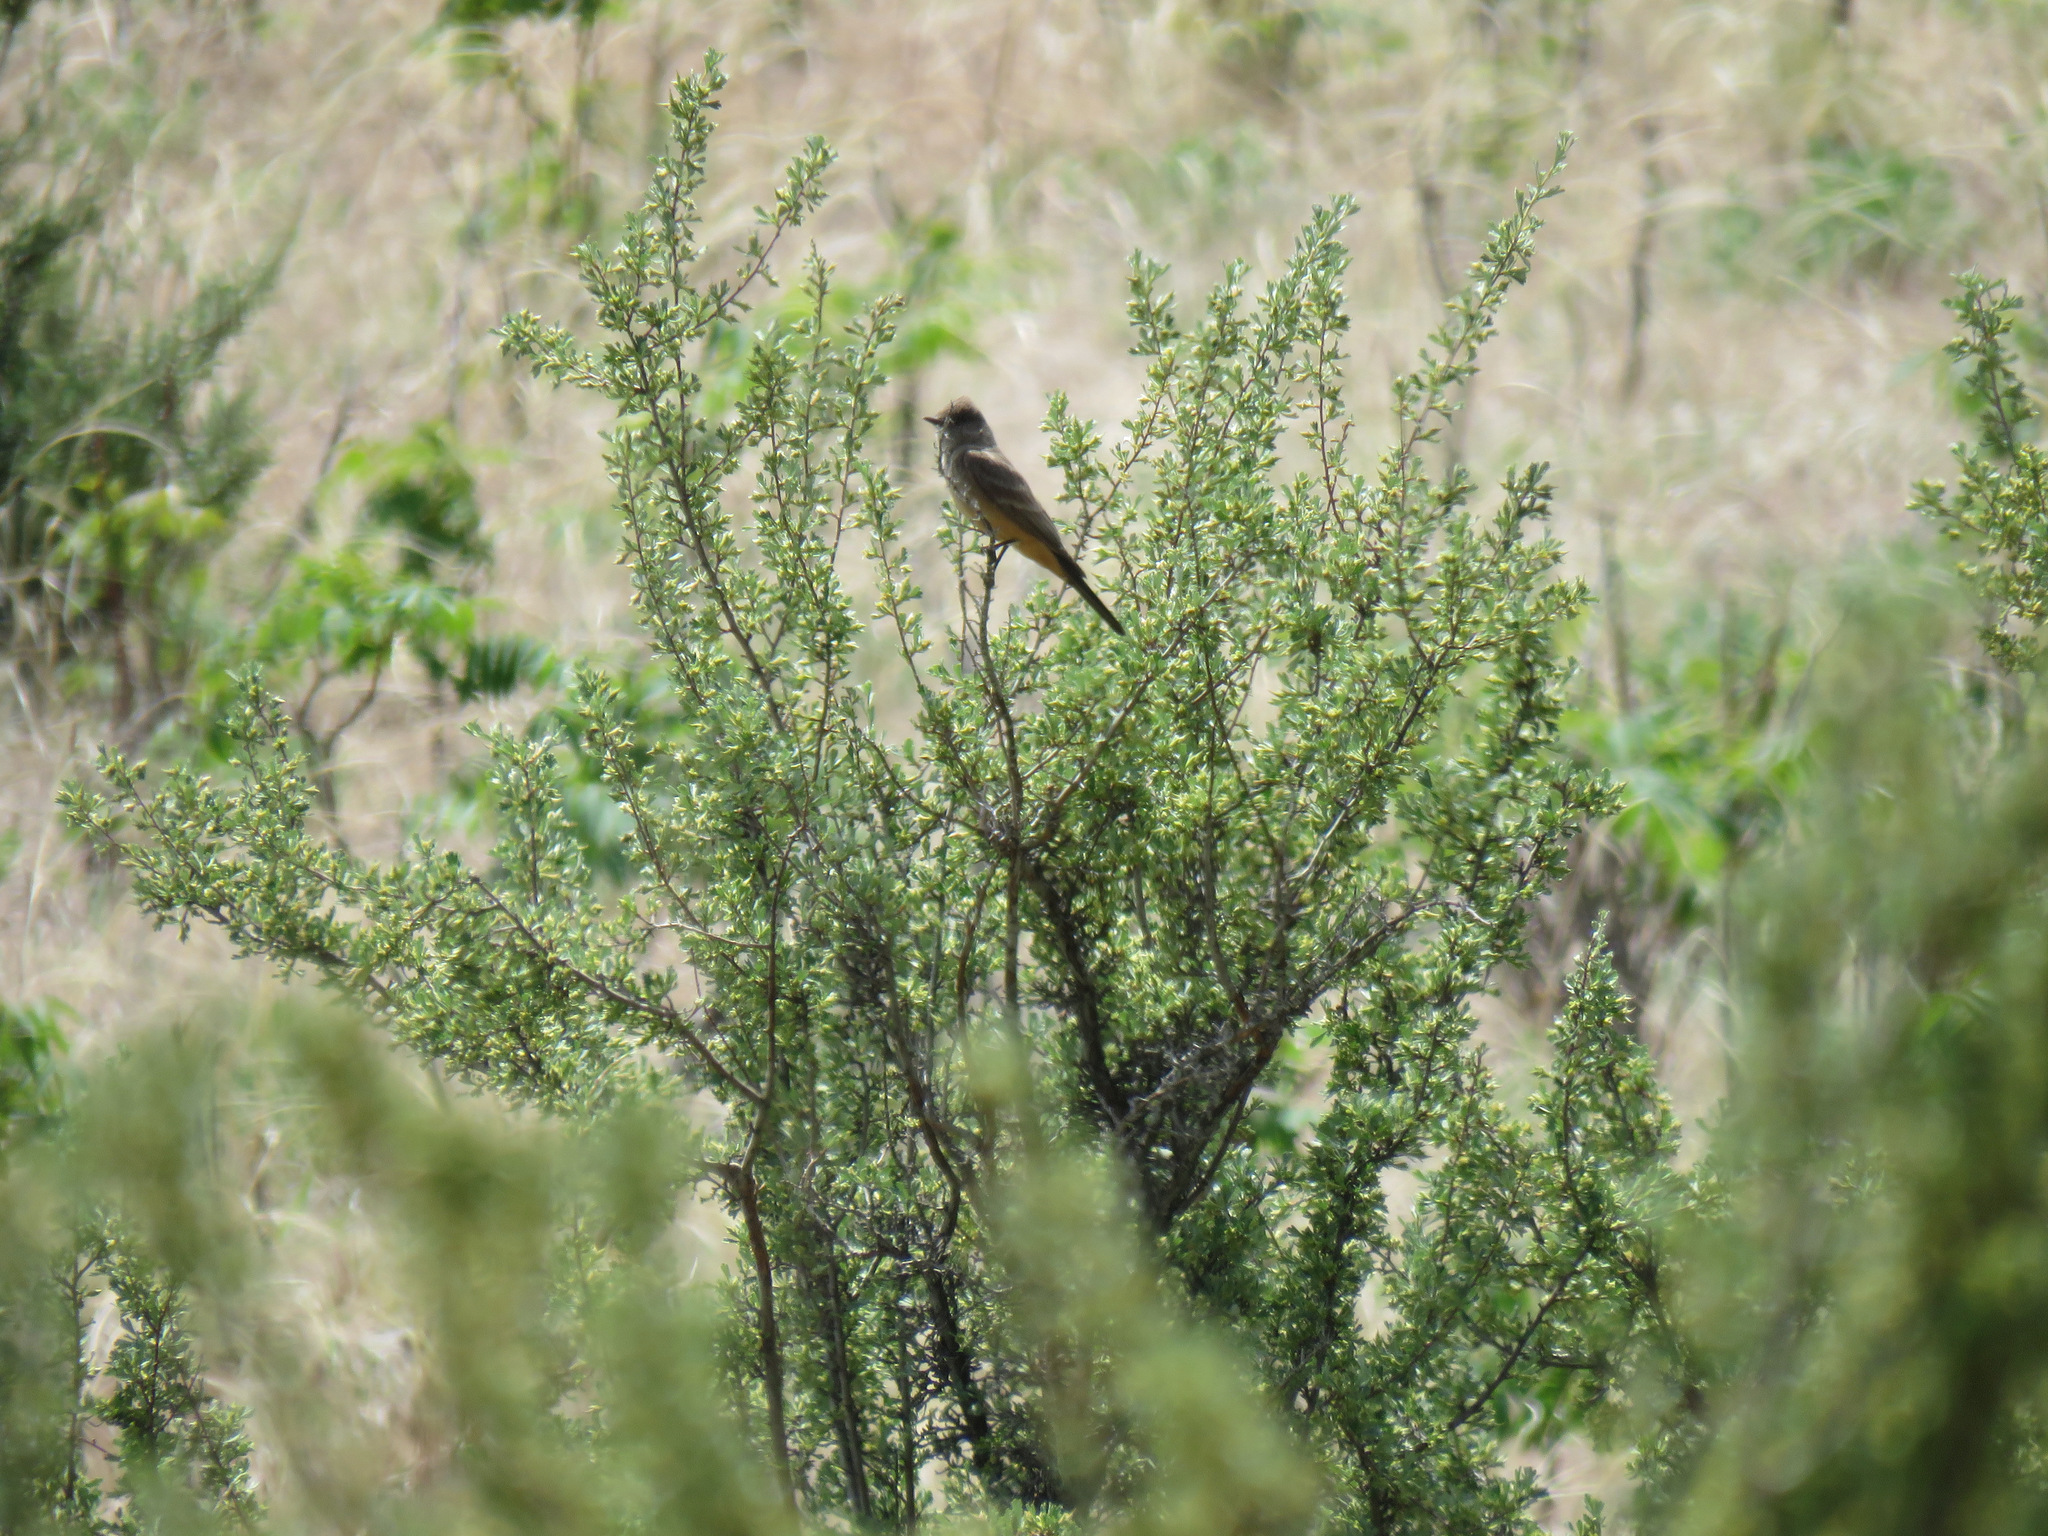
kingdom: Animalia
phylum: Chordata
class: Aves
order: Passeriformes
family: Tyrannidae
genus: Sayornis
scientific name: Sayornis saya
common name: Say's phoebe
